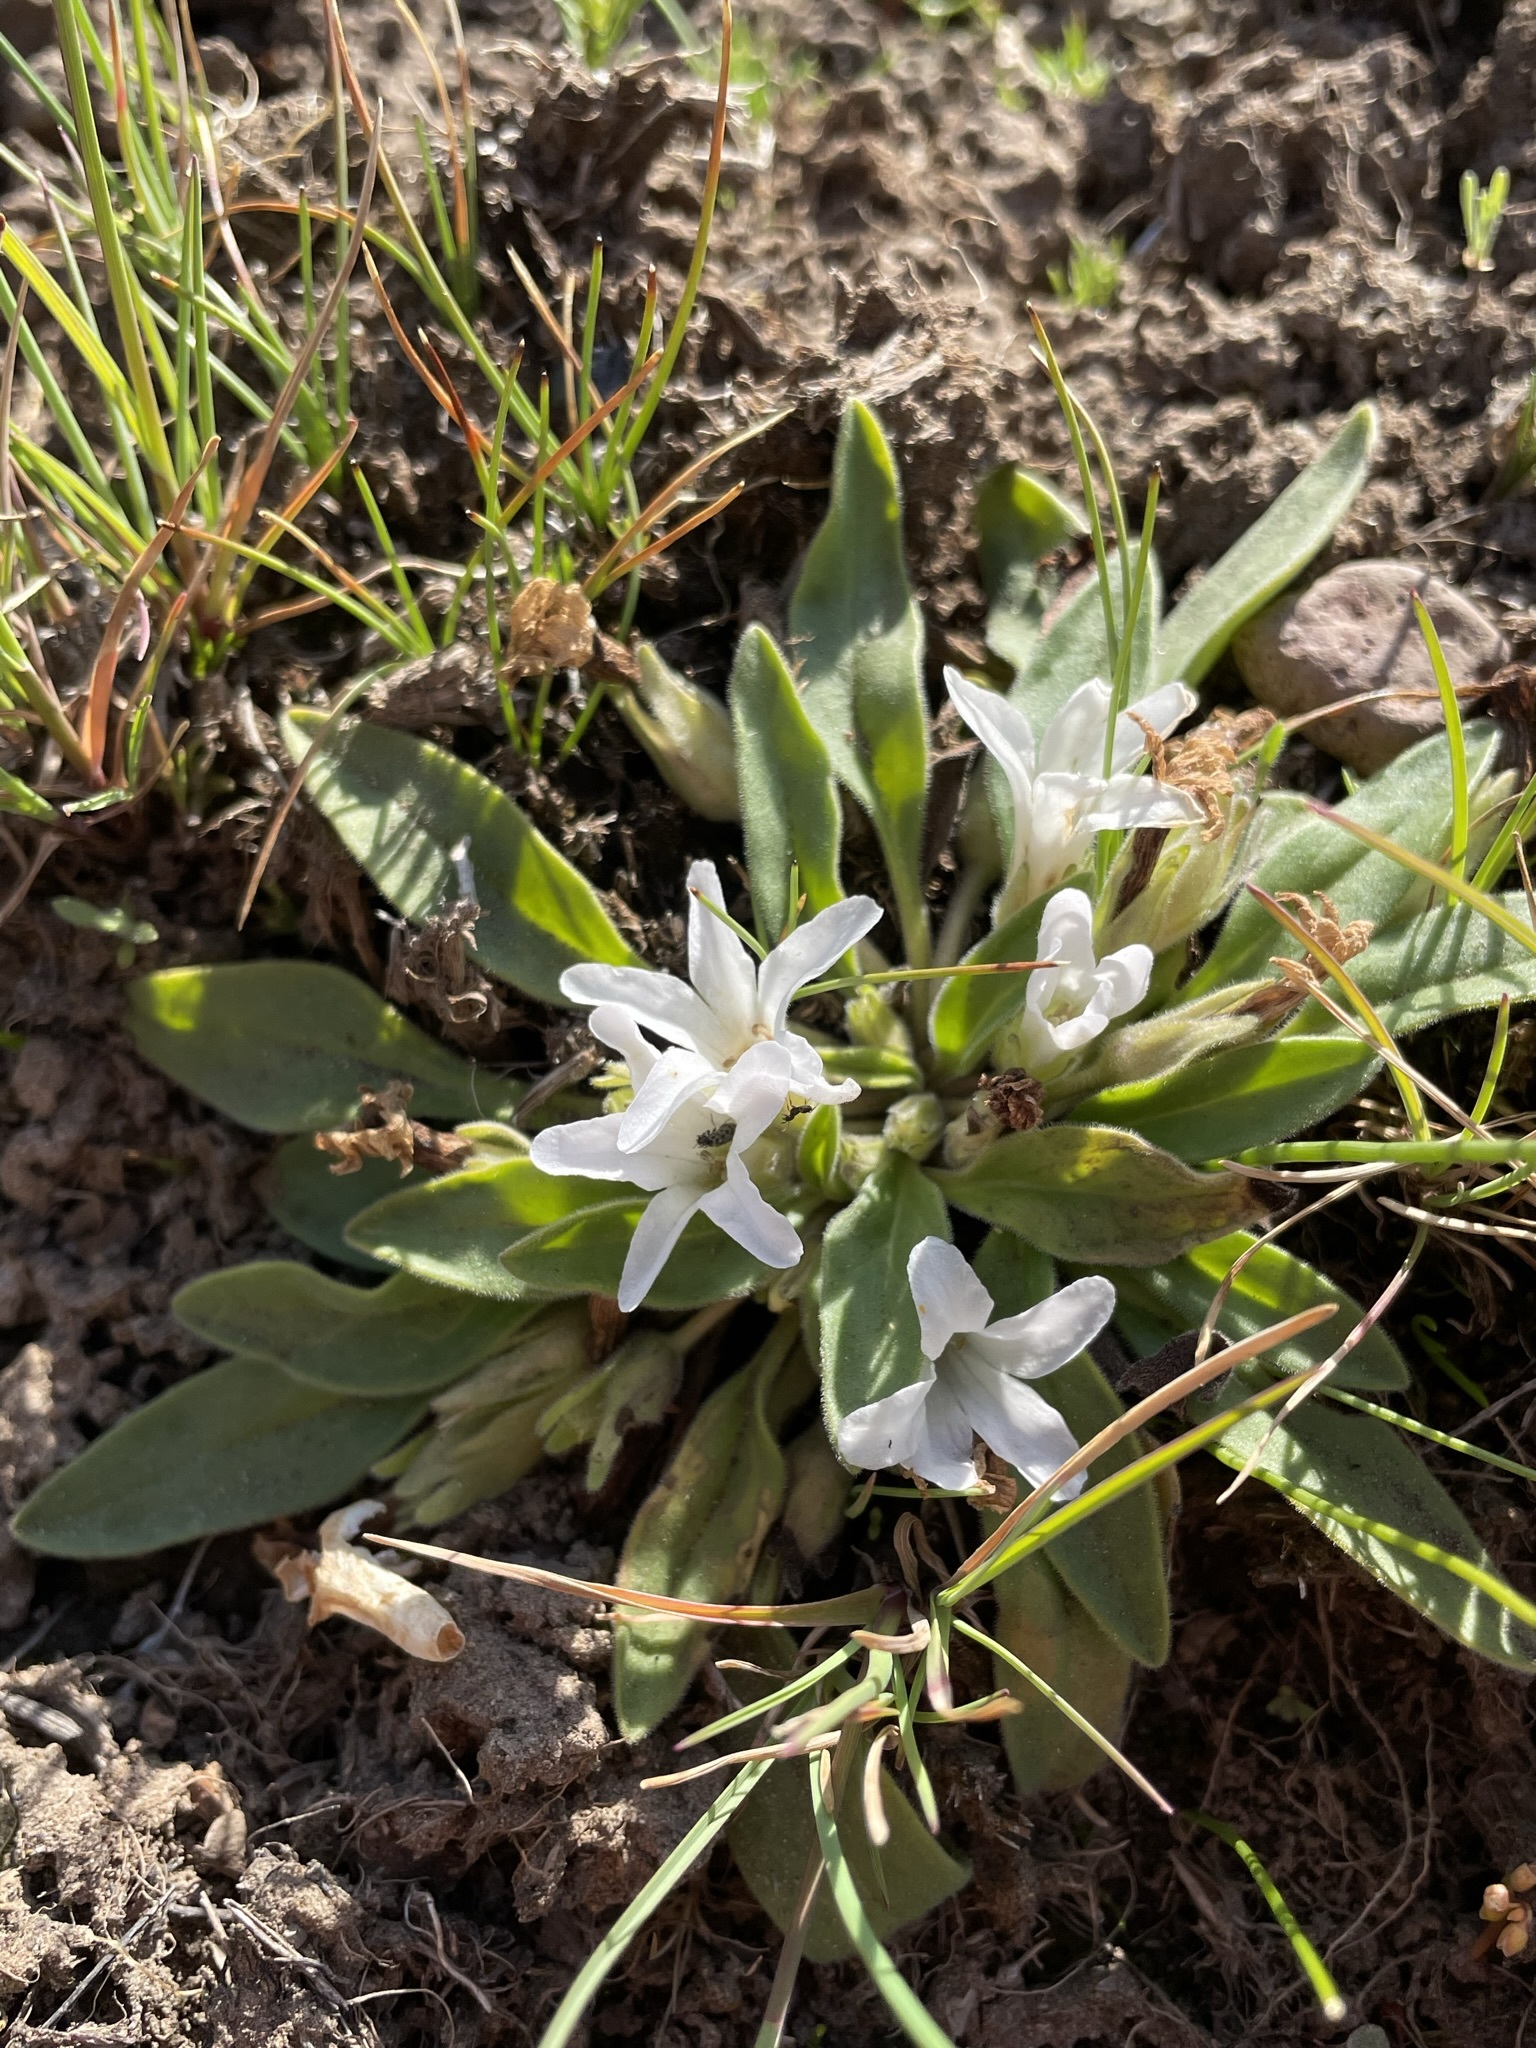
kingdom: Plantae
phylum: Tracheophyta
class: Magnoliopsida
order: Boraginales
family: Hydrophyllaceae
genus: Hesperochiron
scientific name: Hesperochiron californicus
